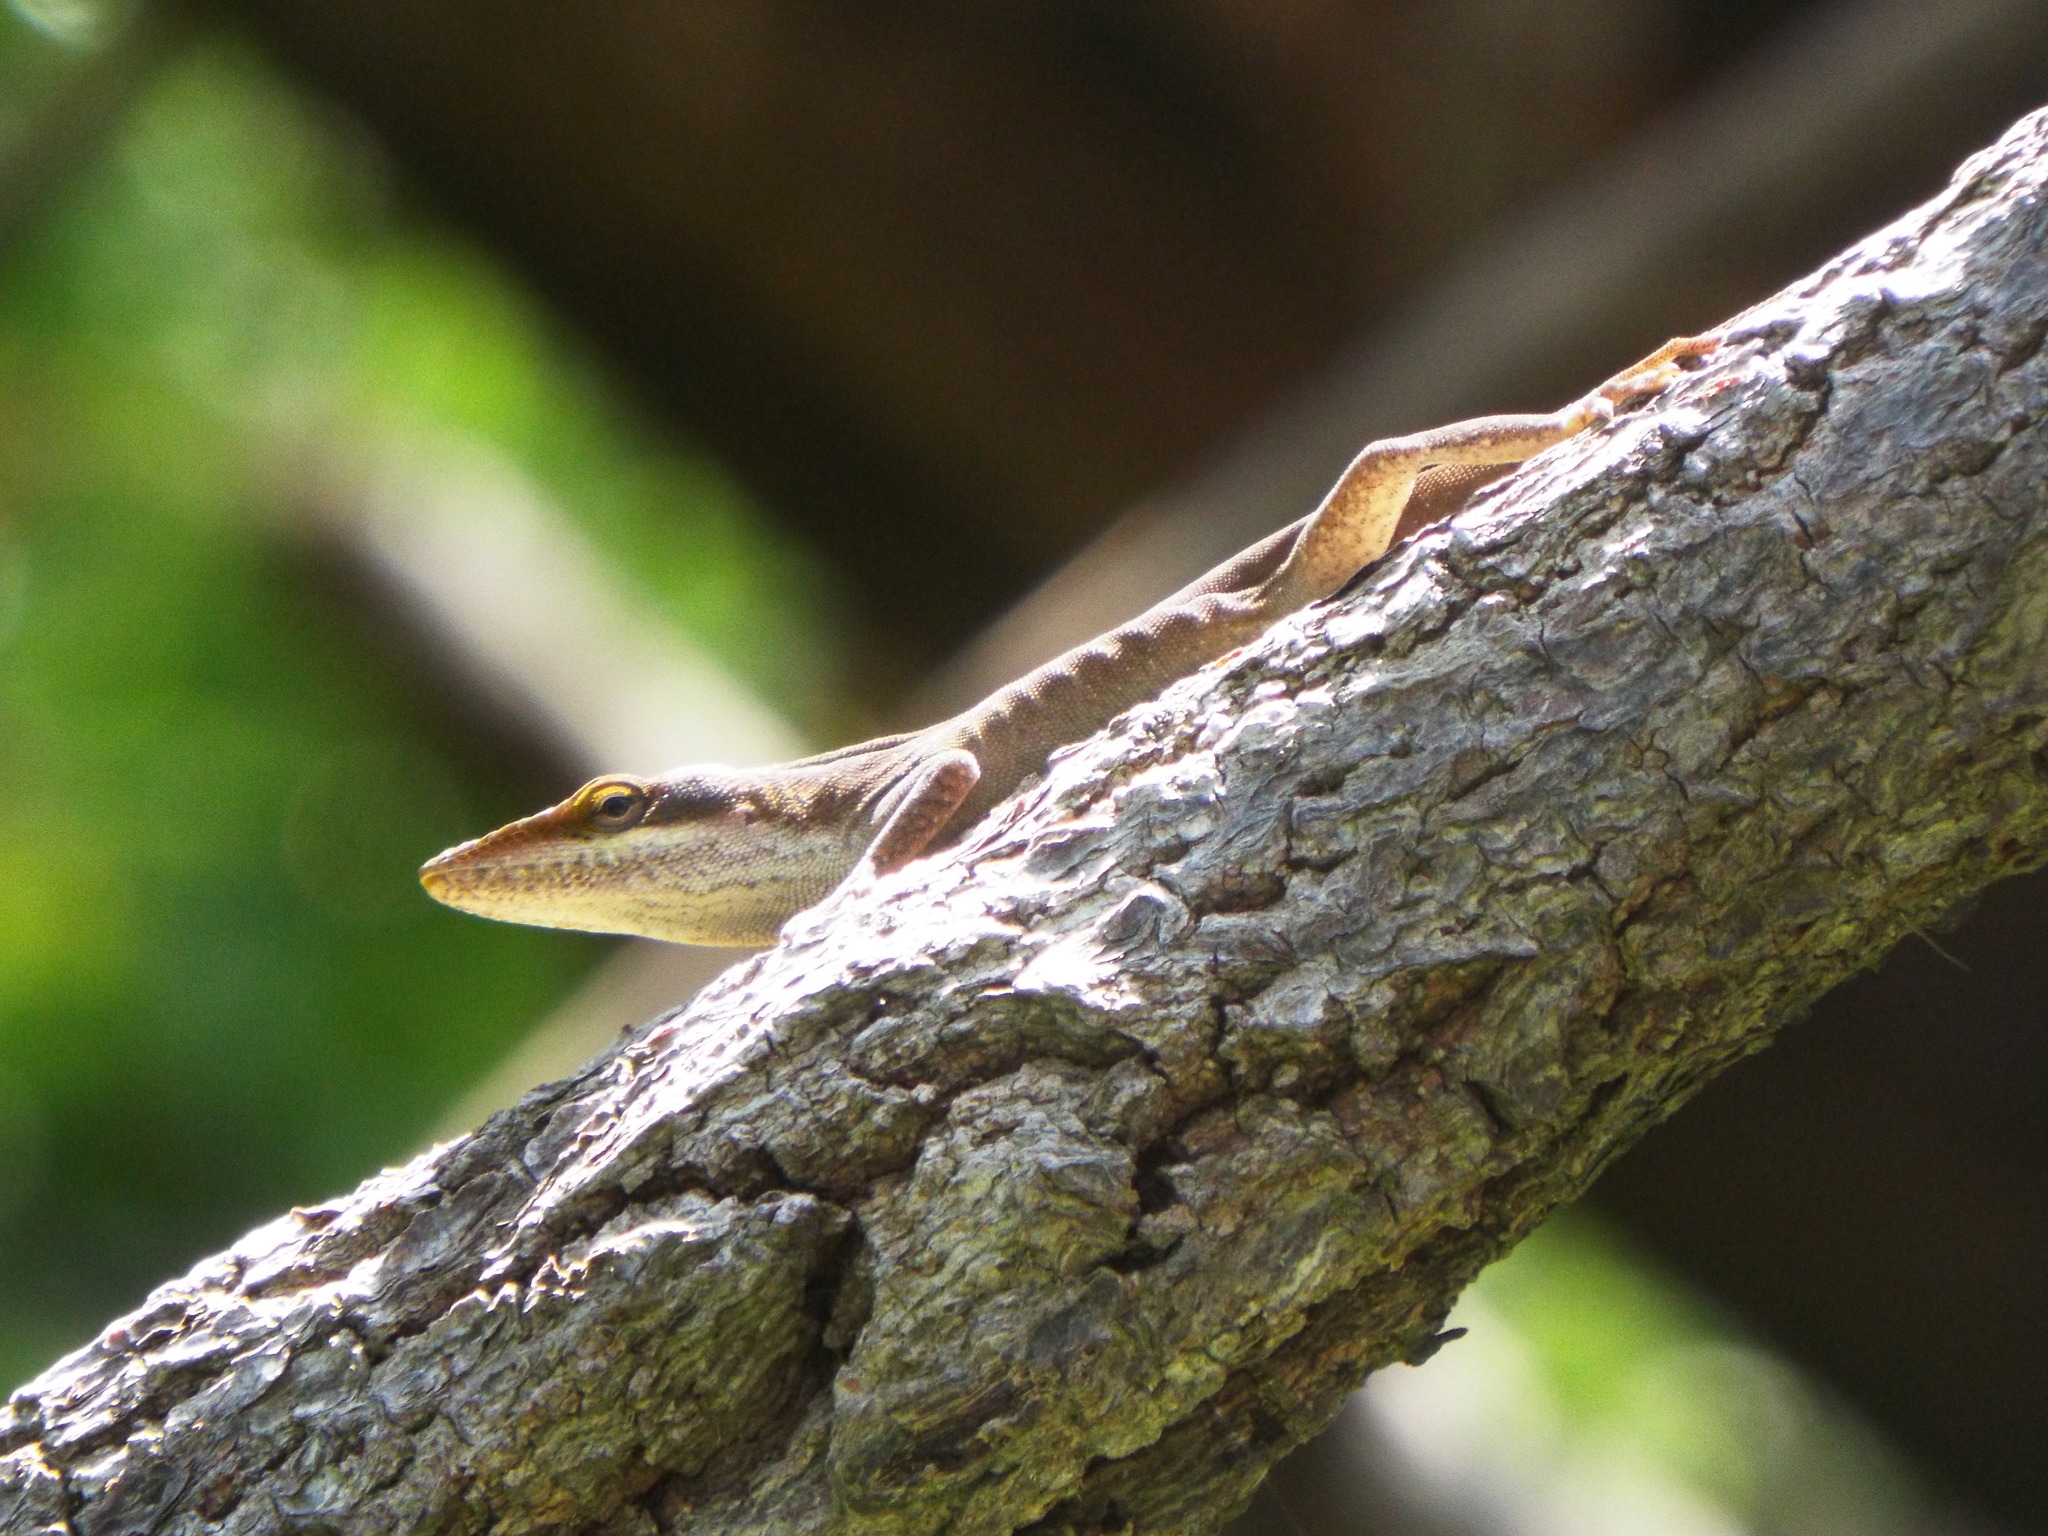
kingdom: Animalia
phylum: Chordata
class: Squamata
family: Dactyloidae
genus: Anolis
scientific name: Anolis carolinensis
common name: Green anole
